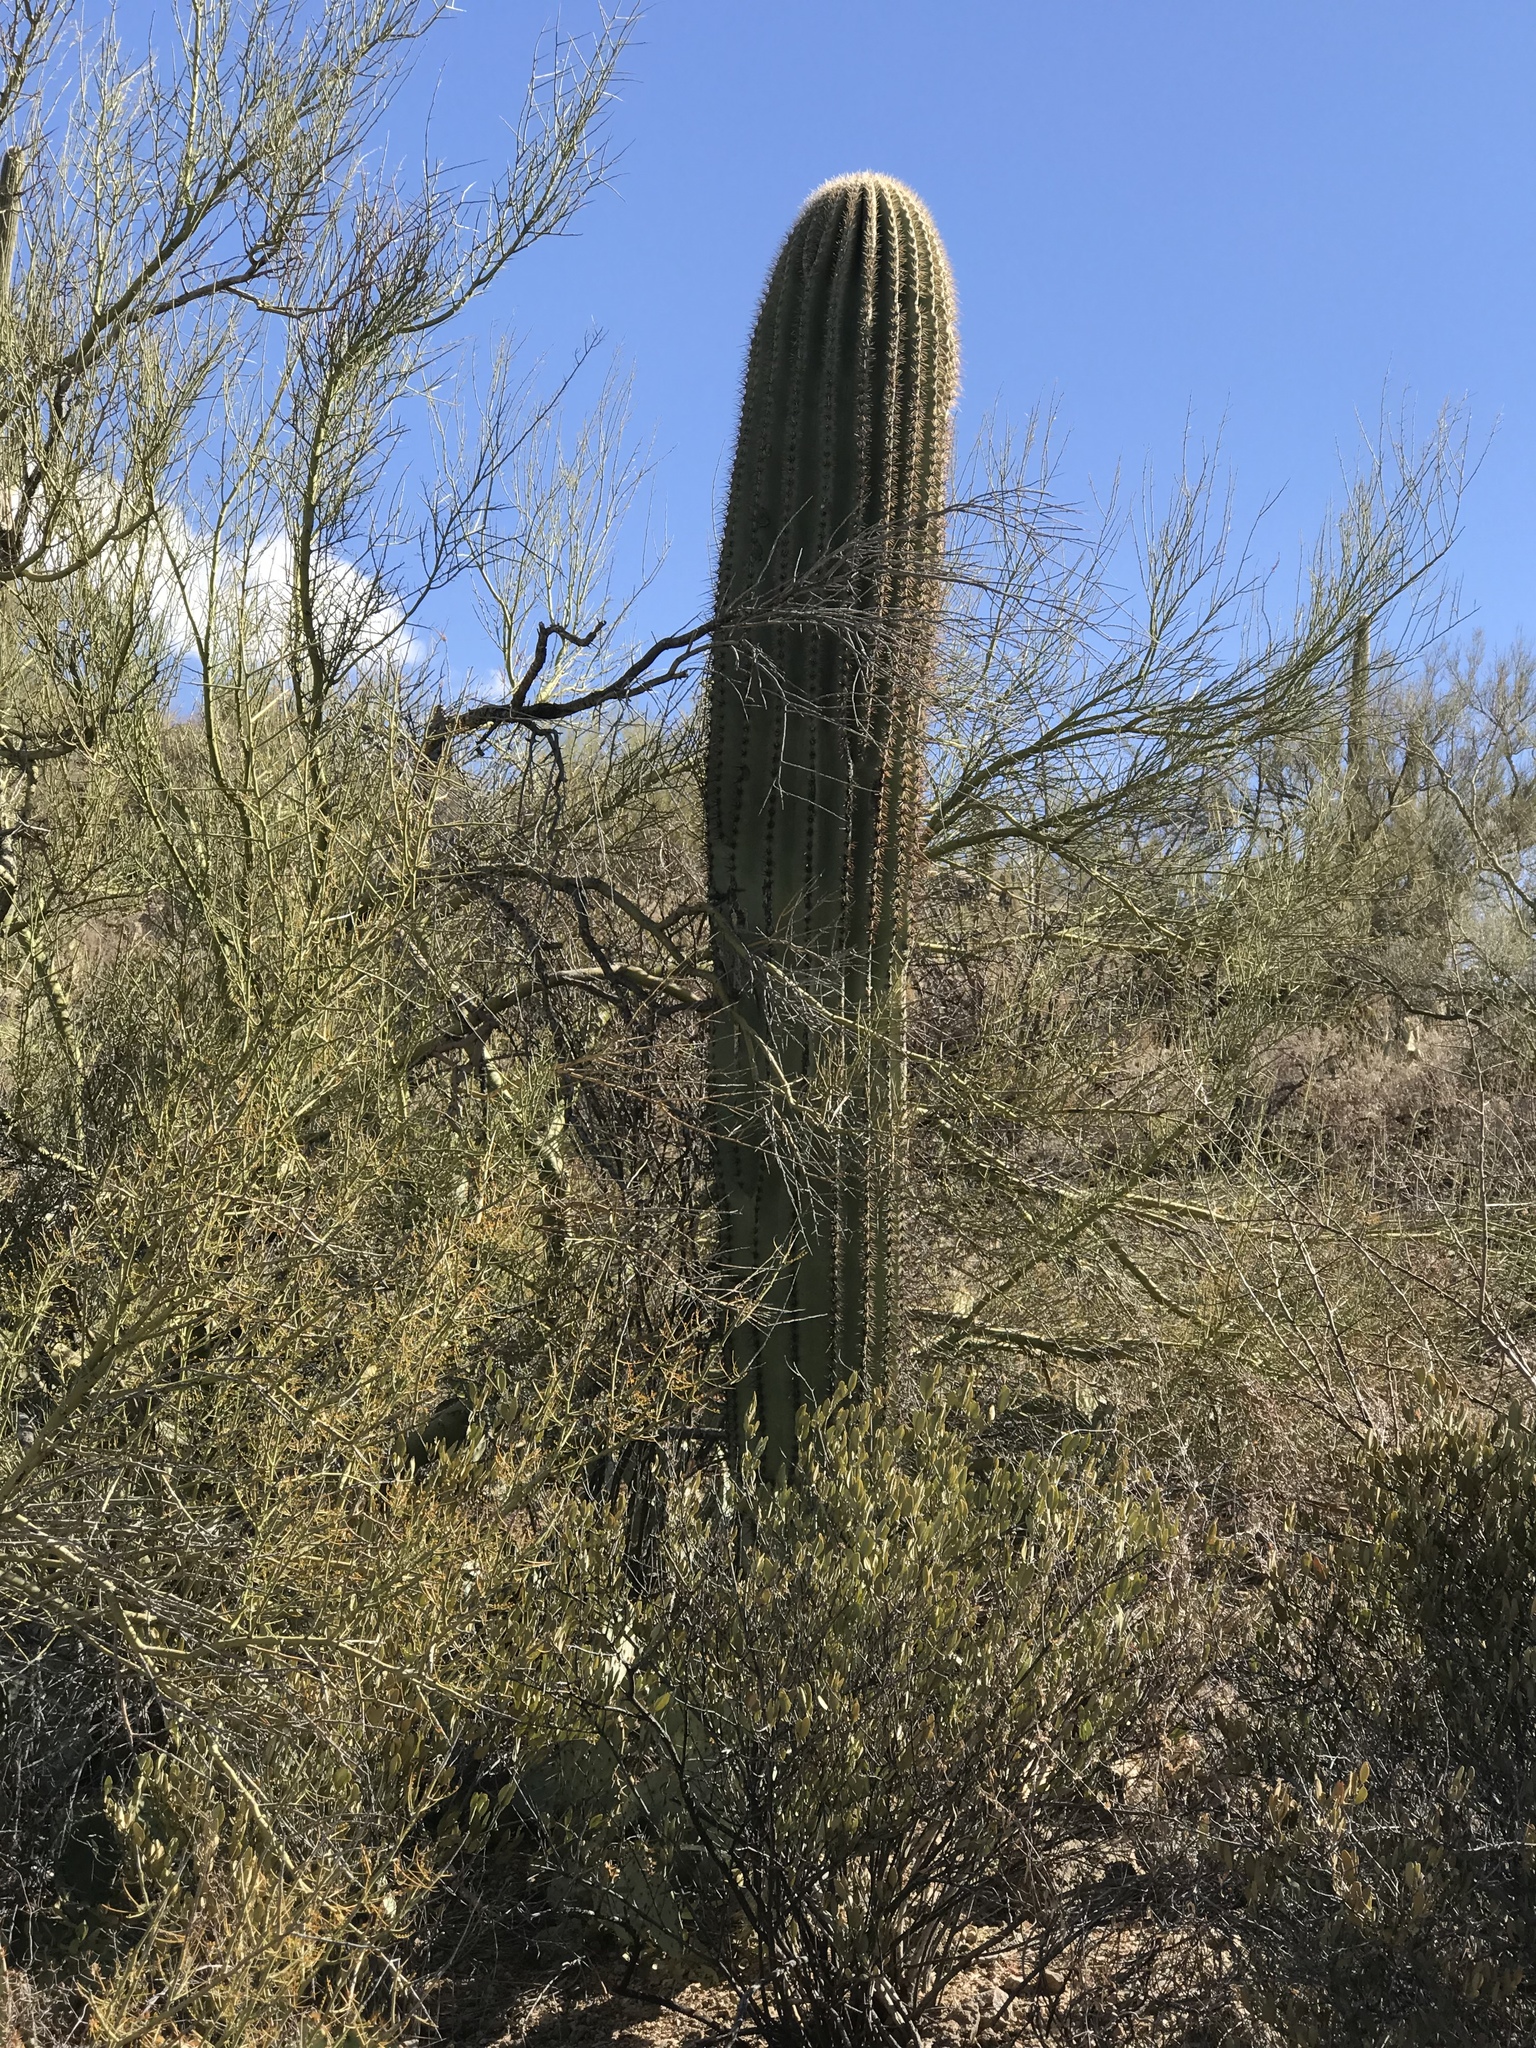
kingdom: Plantae
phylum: Tracheophyta
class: Magnoliopsida
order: Caryophyllales
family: Cactaceae
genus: Carnegiea
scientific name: Carnegiea gigantea
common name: Saguaro
